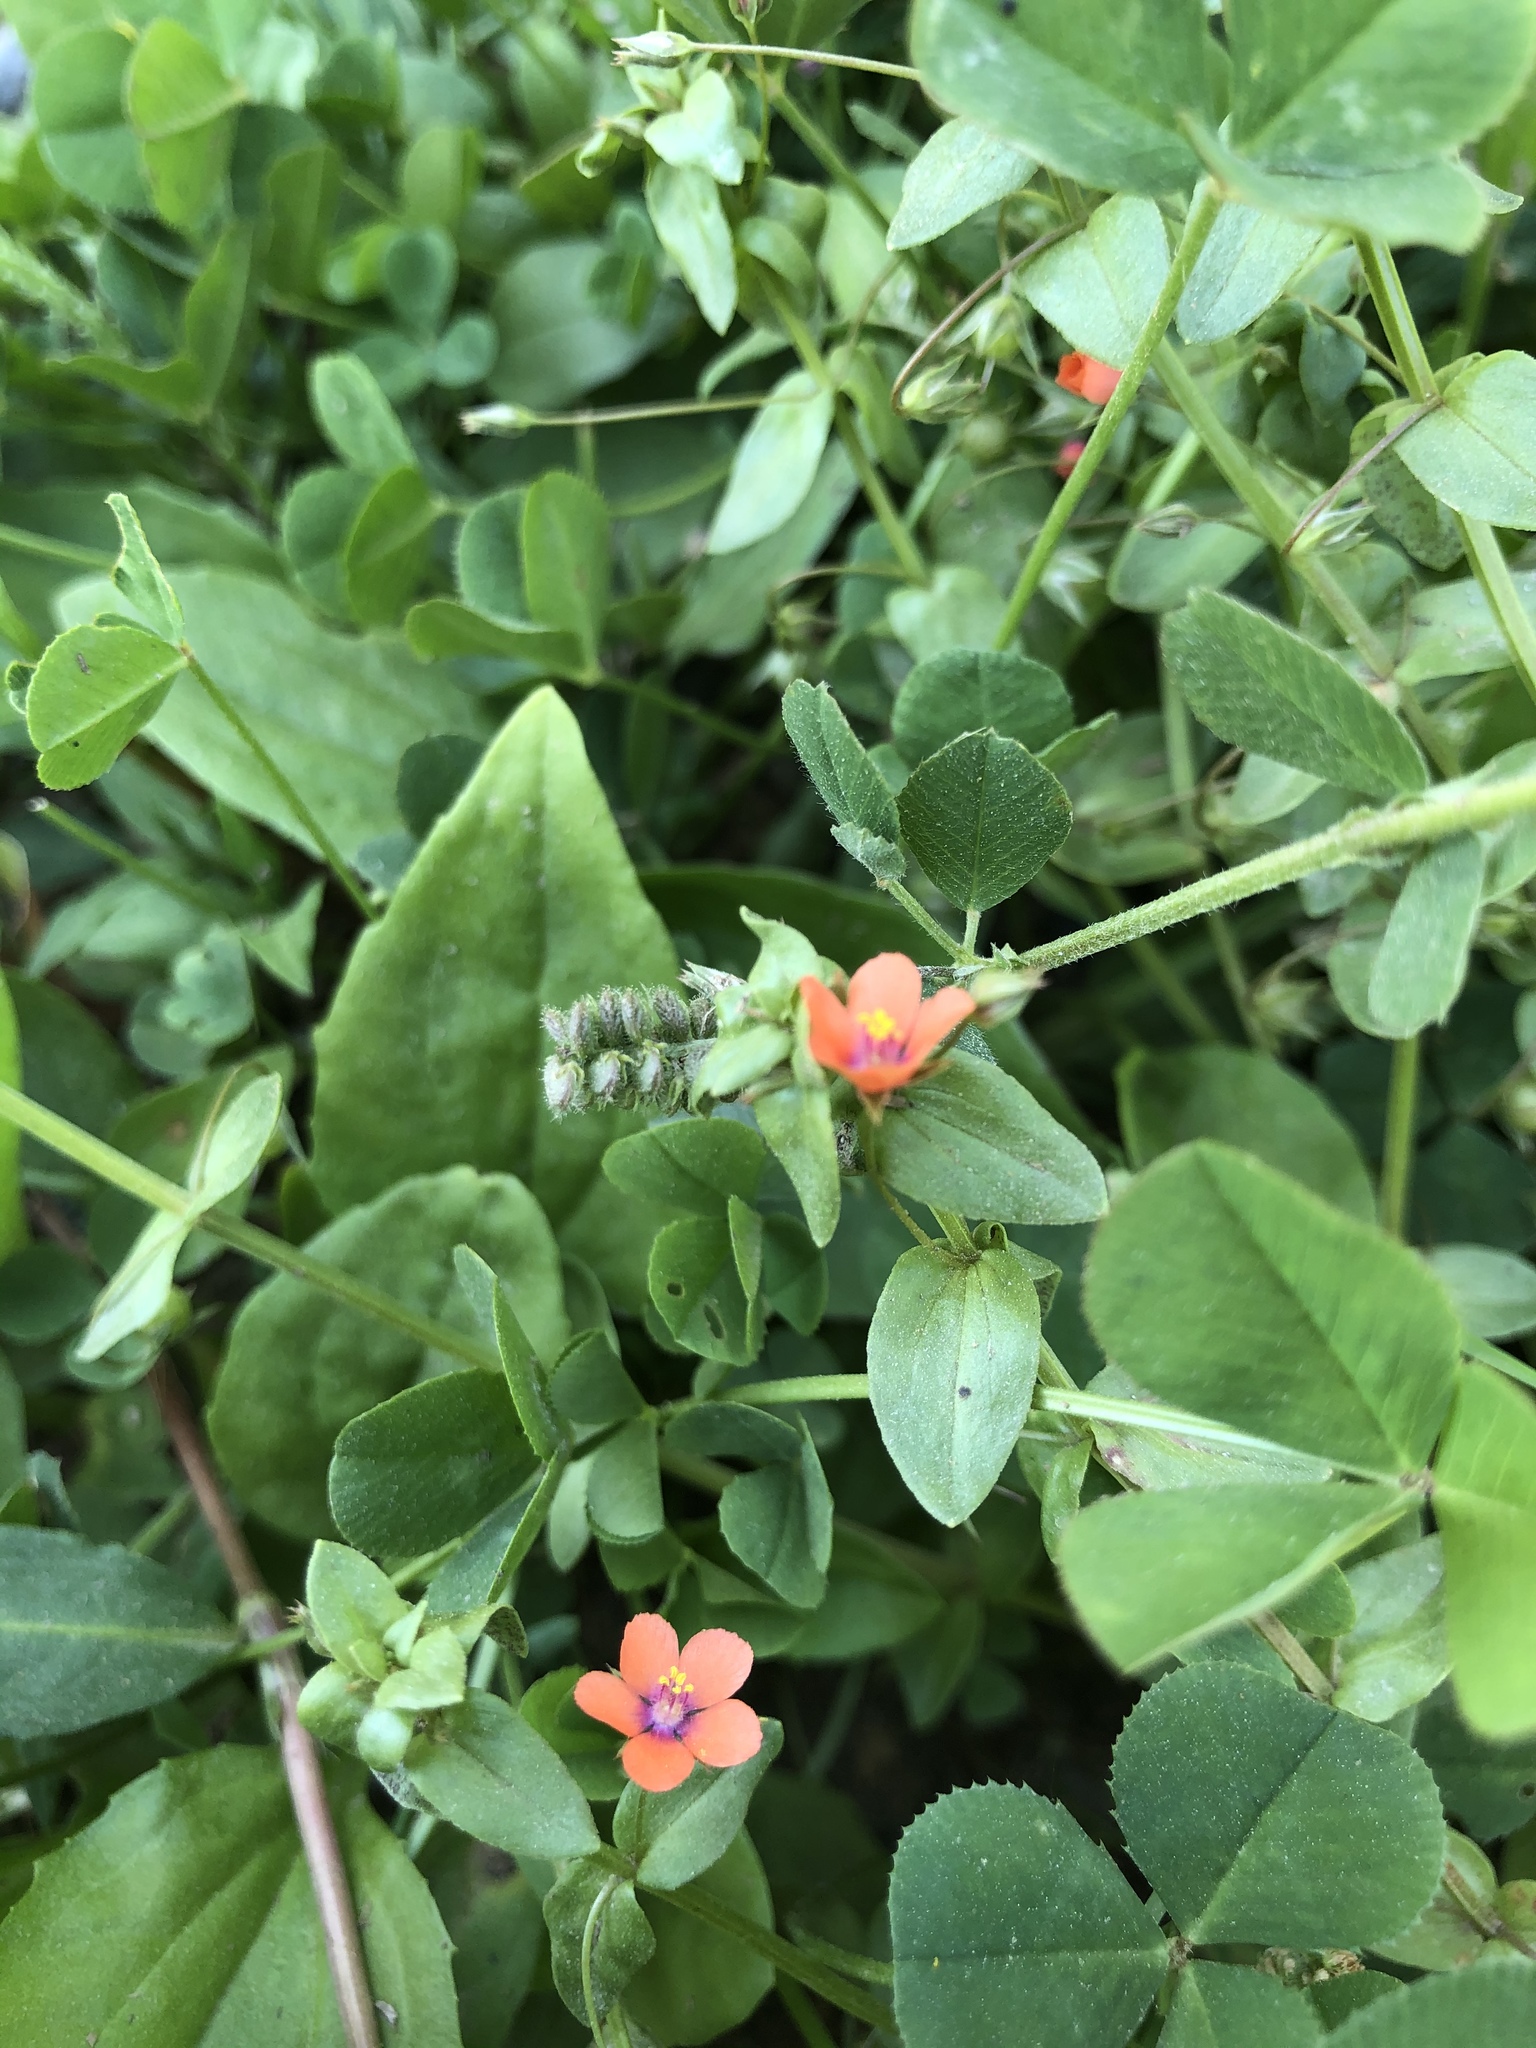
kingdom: Plantae
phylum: Tracheophyta
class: Magnoliopsida
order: Ericales
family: Primulaceae
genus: Lysimachia
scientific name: Lysimachia arvensis
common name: Scarlet pimpernel
